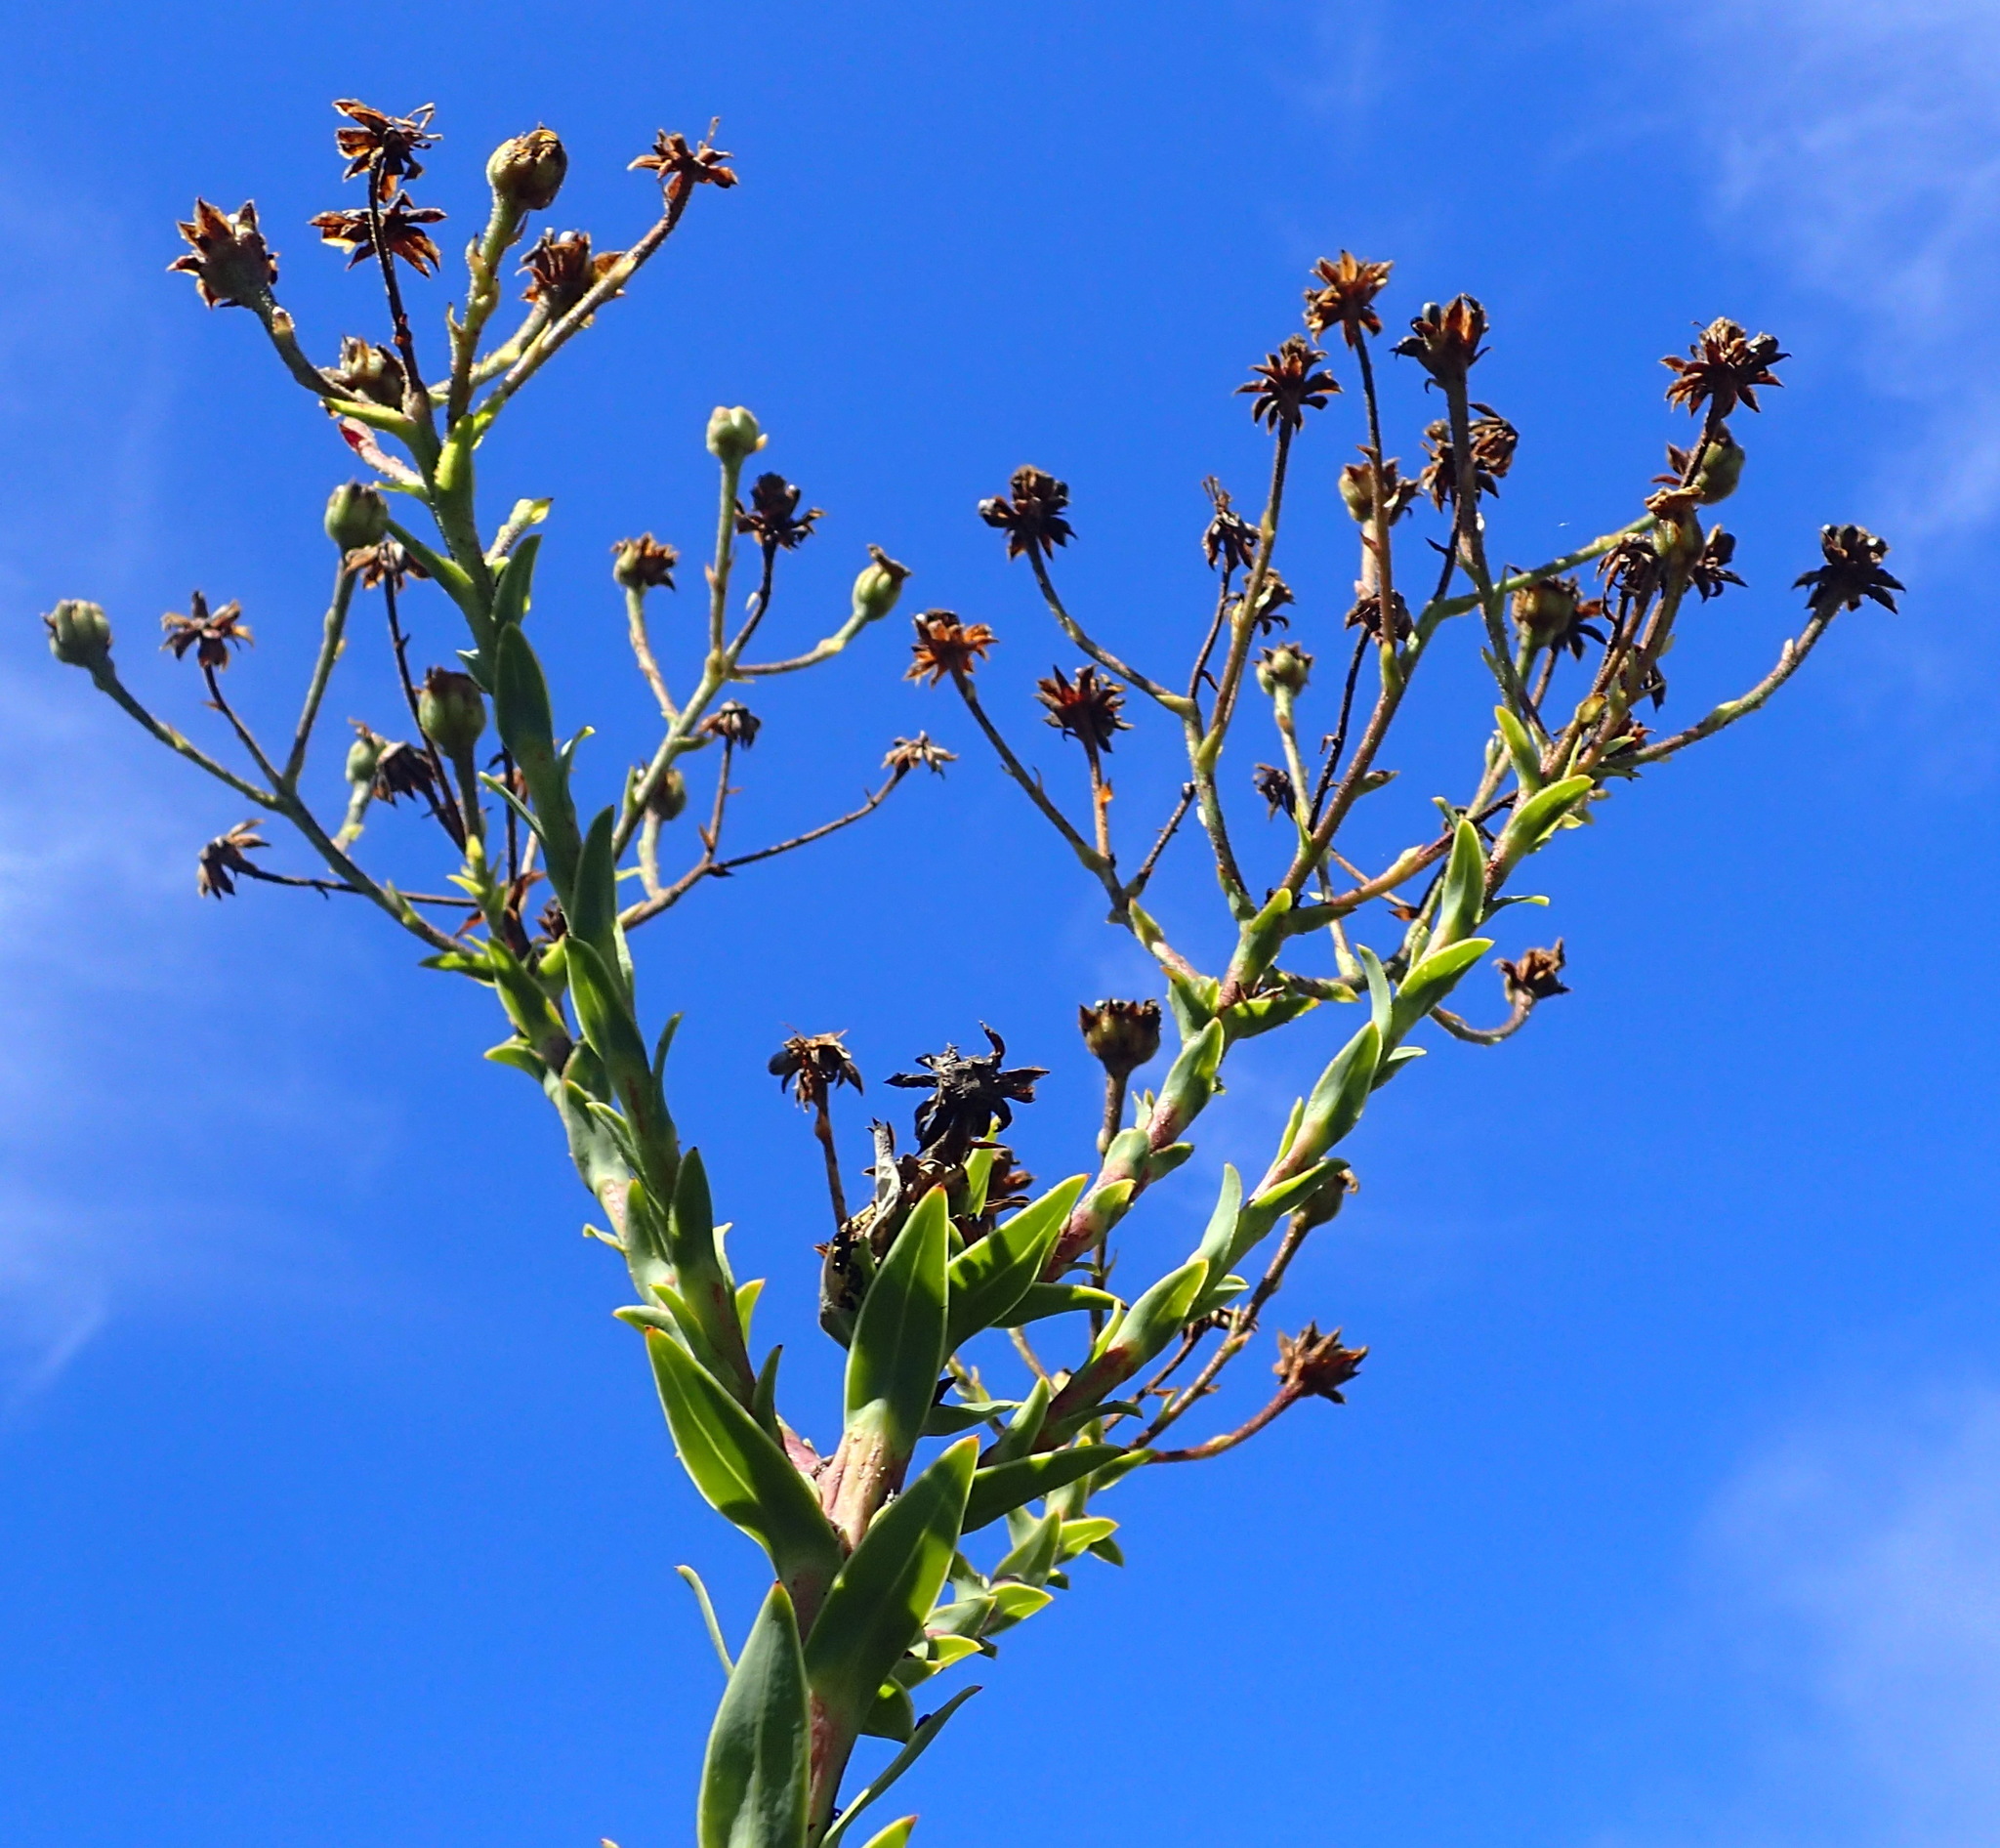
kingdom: Plantae
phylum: Tracheophyta
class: Magnoliopsida
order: Asterales
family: Asteraceae
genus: Osteospermum
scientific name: Osteospermum corymbosum
